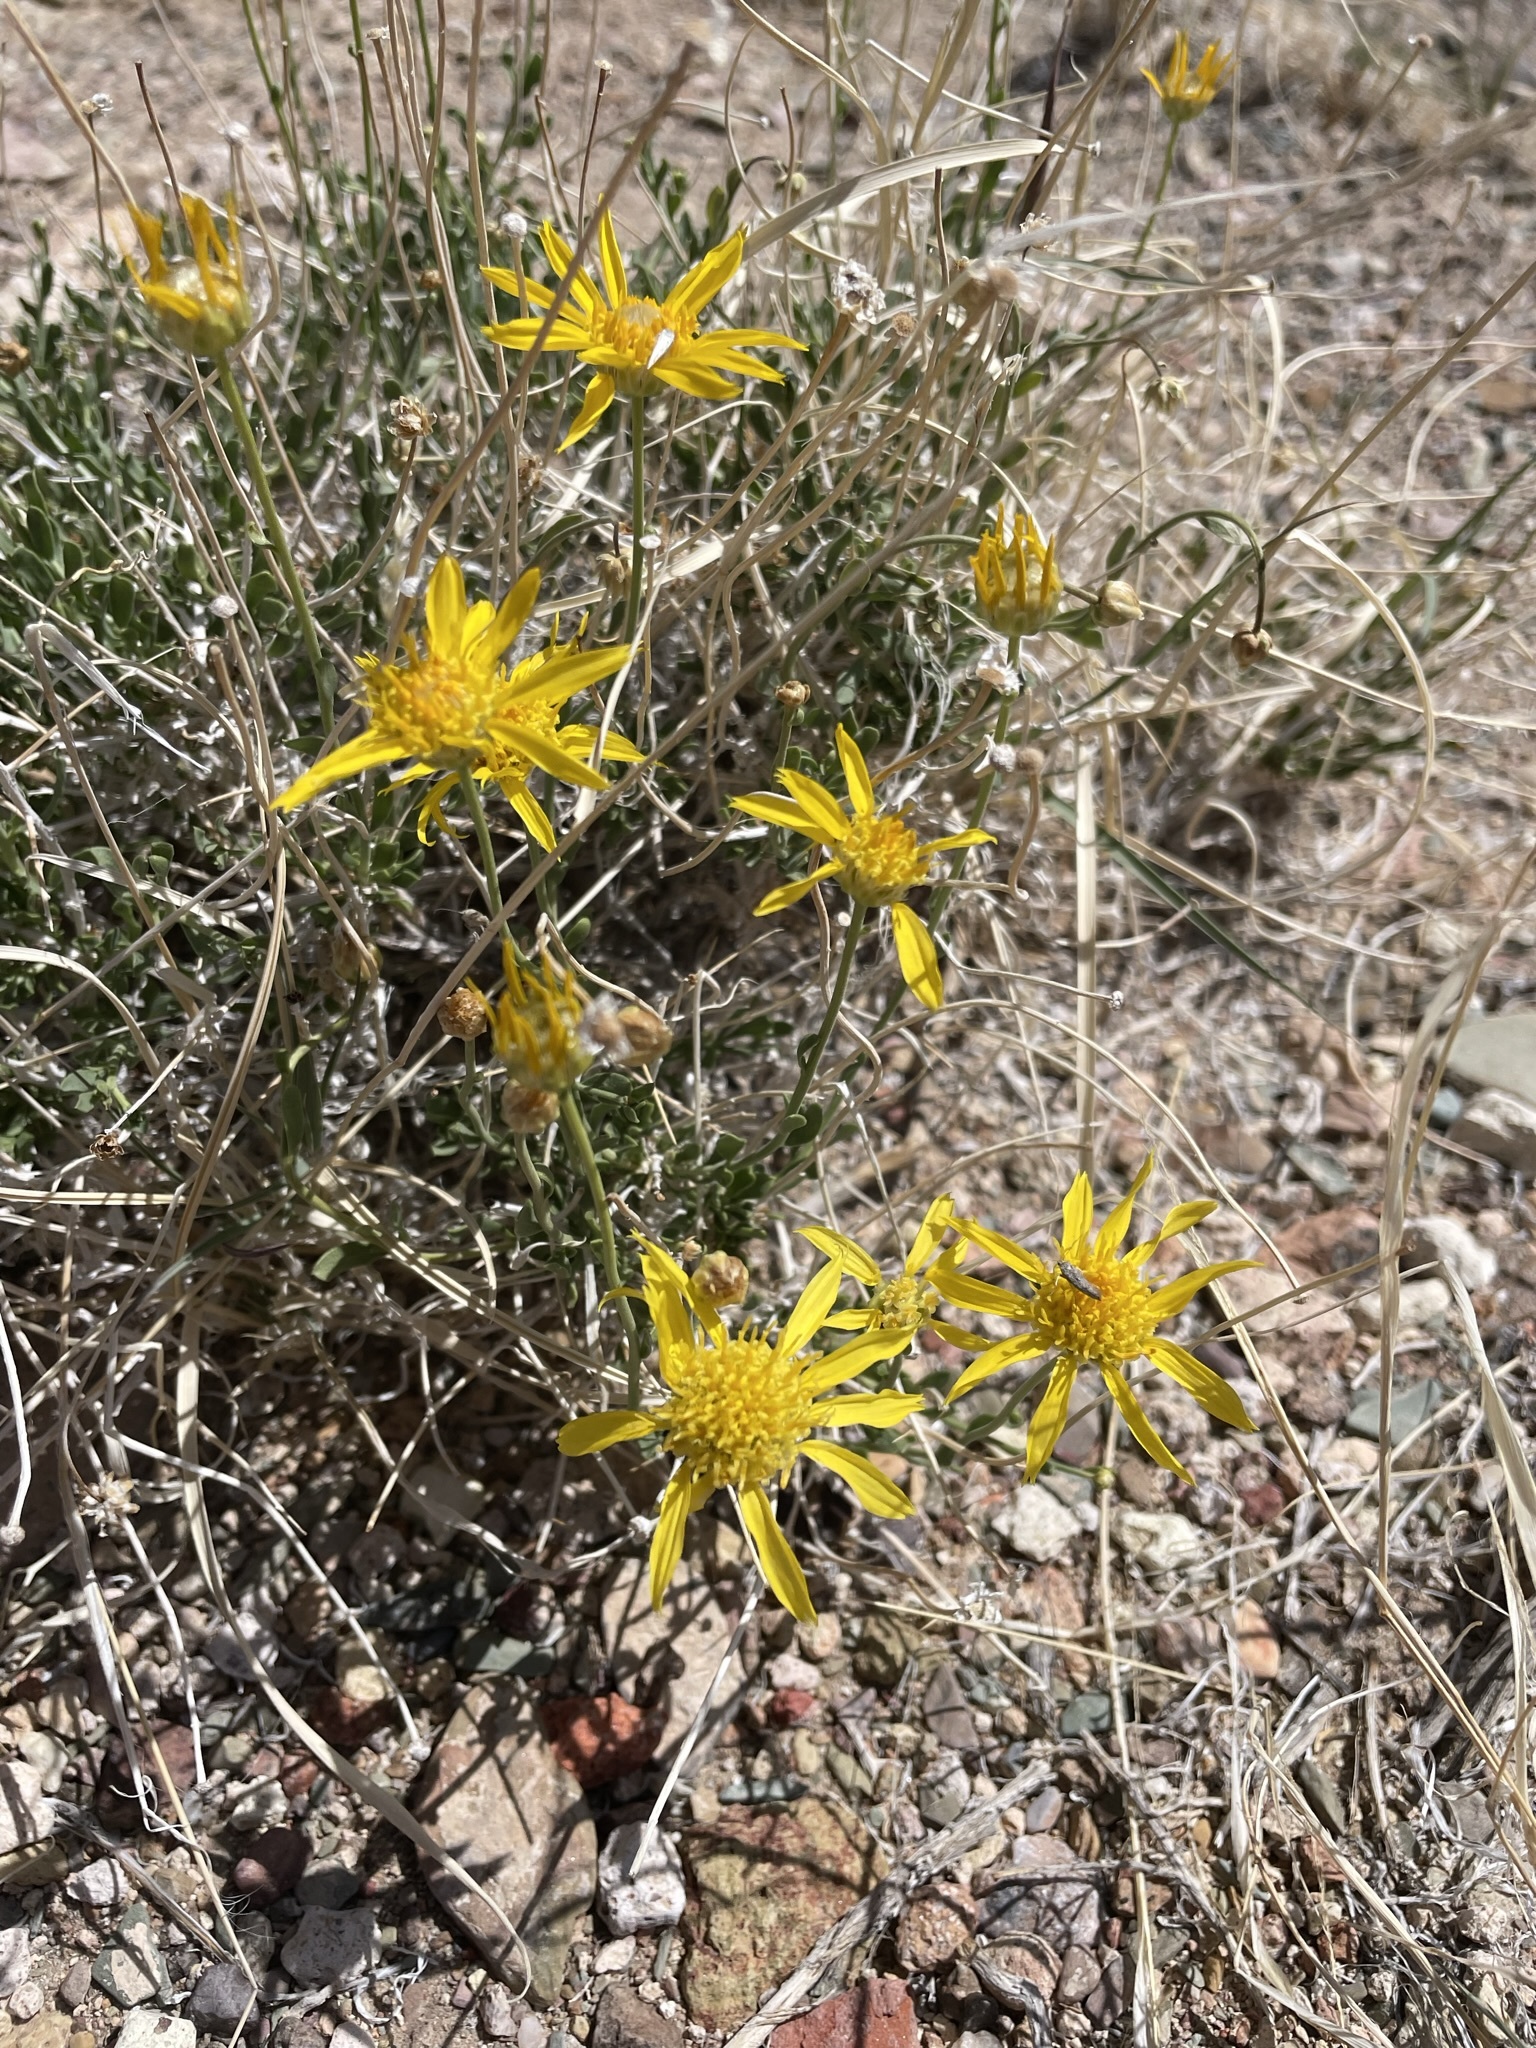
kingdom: Plantae
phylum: Tracheophyta
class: Magnoliopsida
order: Asterales
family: Asteraceae
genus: Acamptopappus
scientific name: Acamptopappus shockleyi
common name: Shockley's goldenhead
